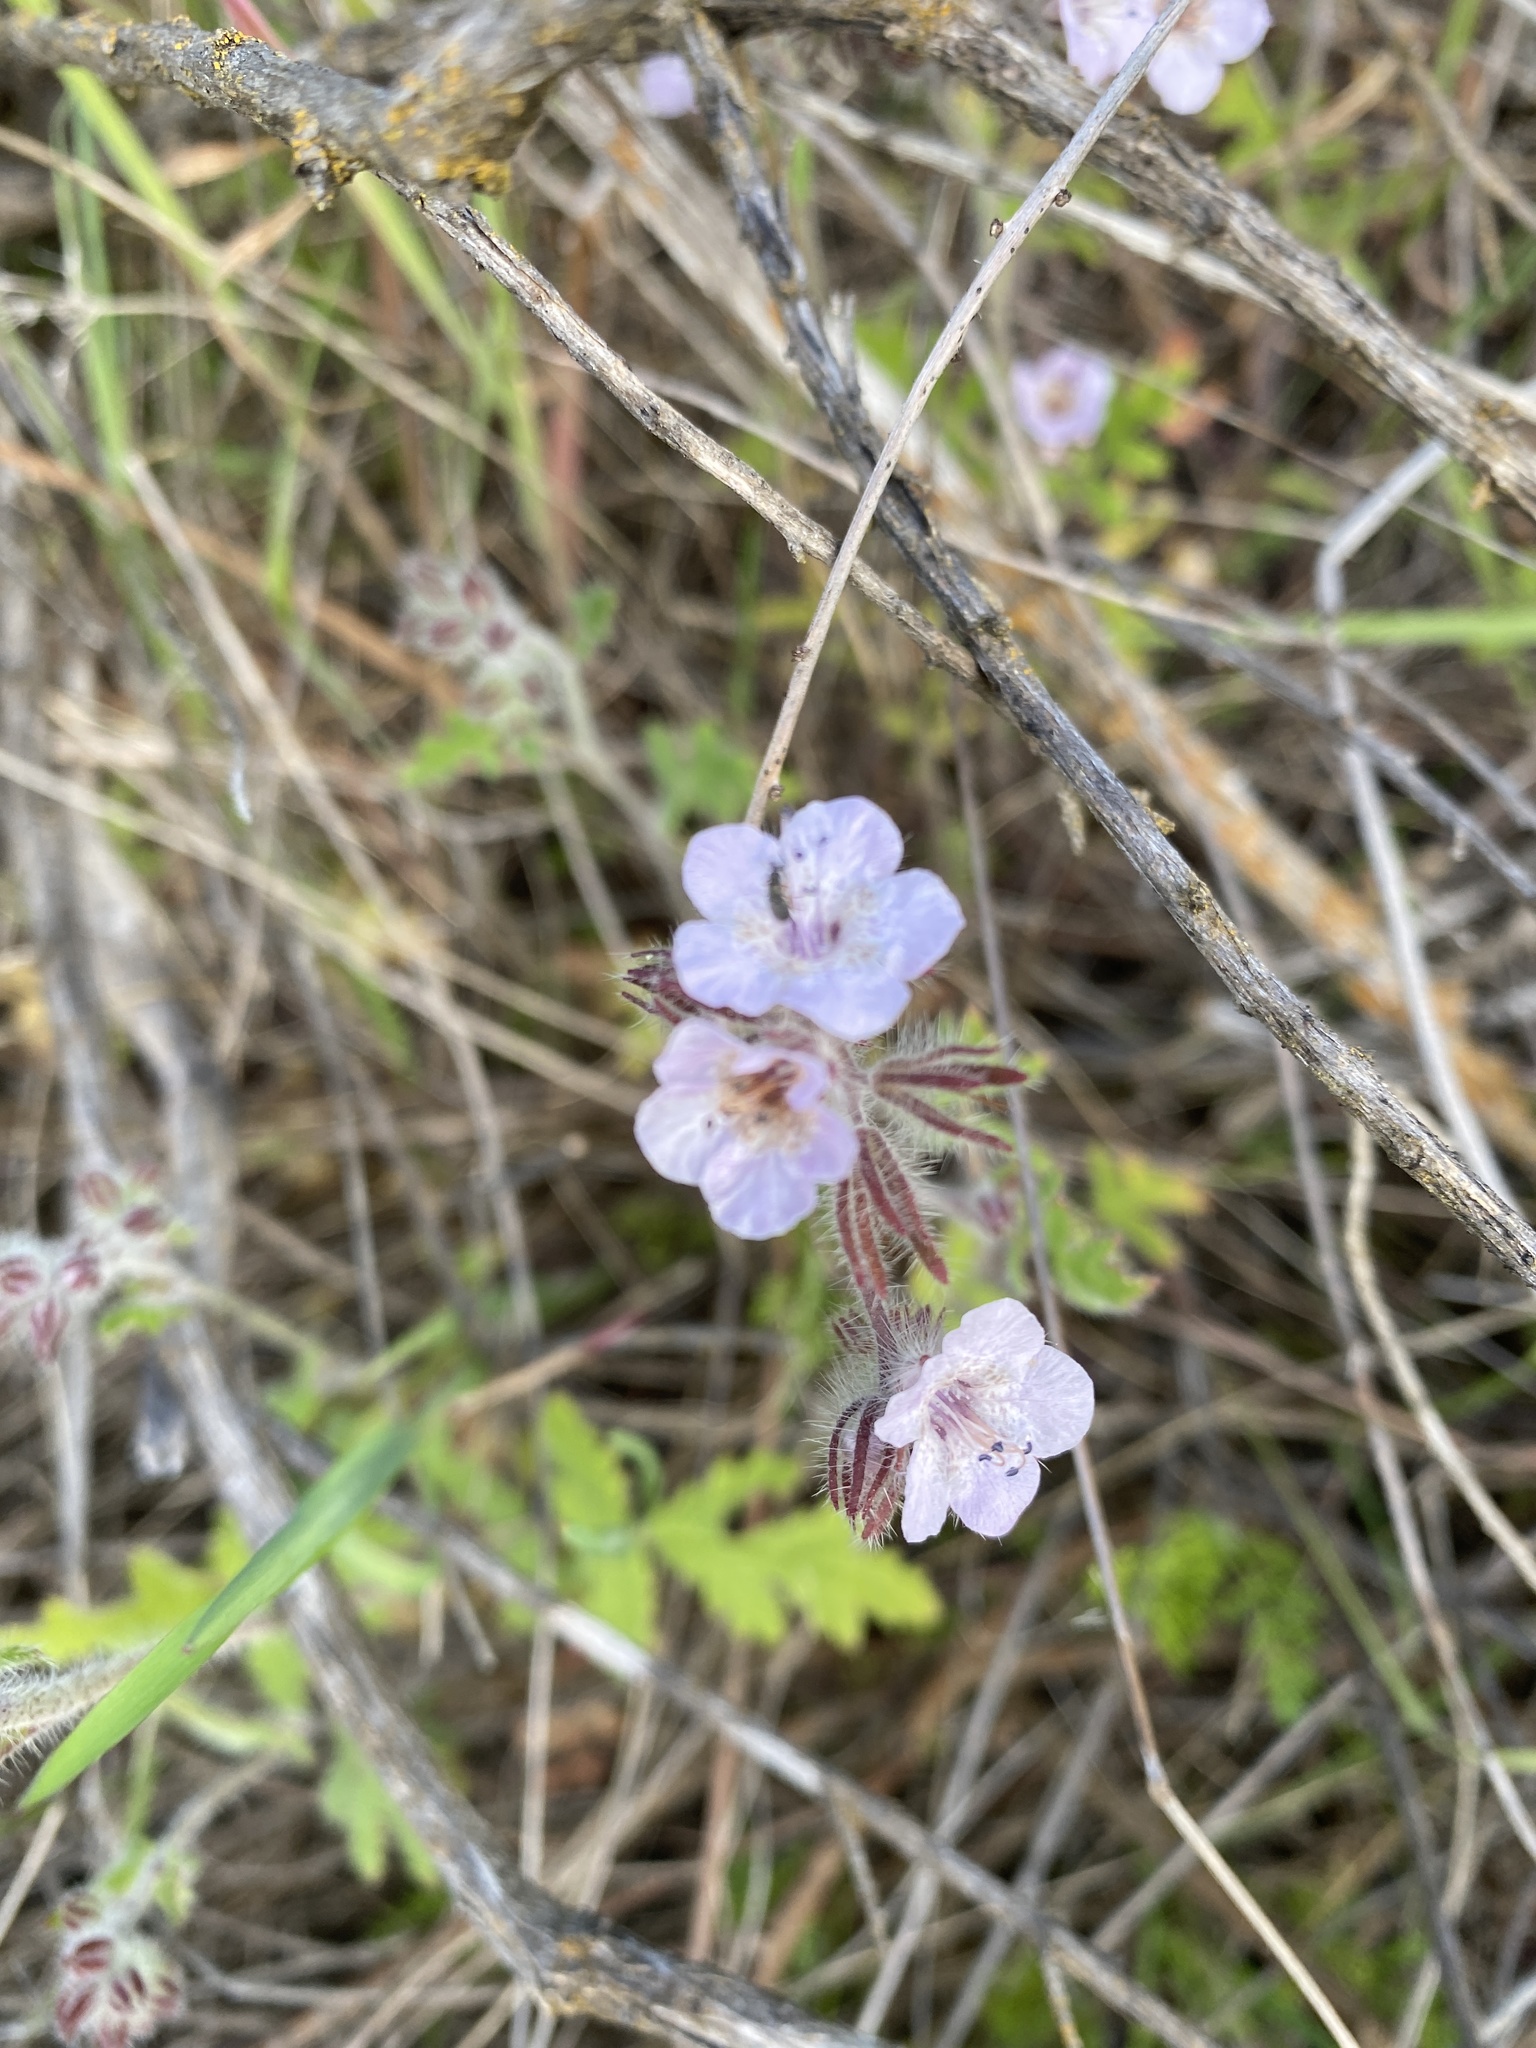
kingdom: Plantae
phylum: Tracheophyta
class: Magnoliopsida
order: Boraginales
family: Hydrophyllaceae
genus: Phacelia
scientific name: Phacelia cicutaria
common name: Caterpillar phacelia
